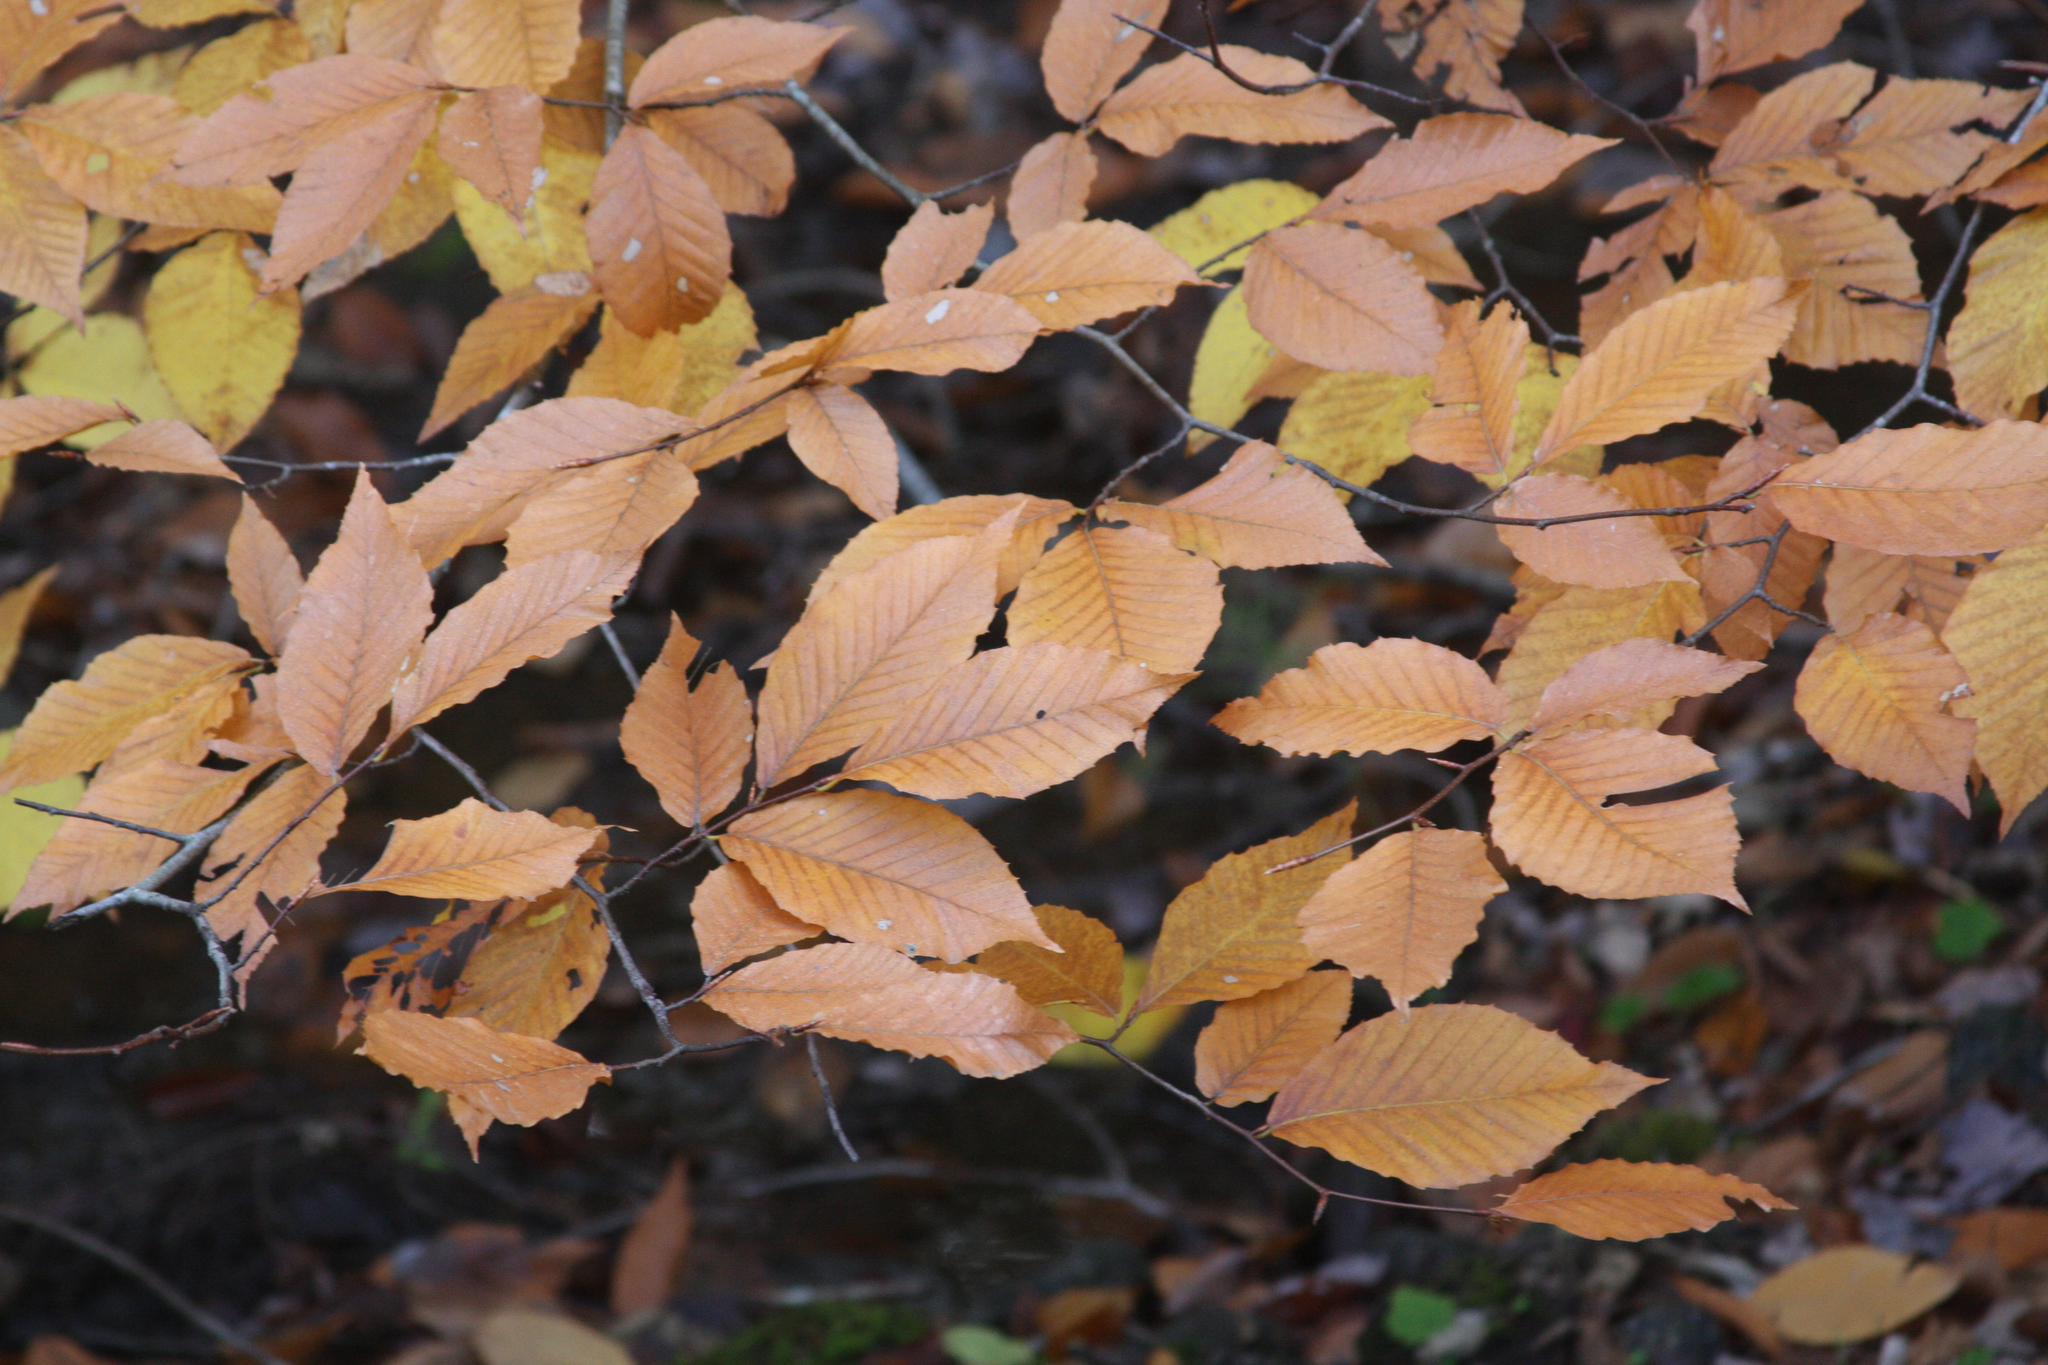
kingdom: Plantae
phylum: Tracheophyta
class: Magnoliopsida
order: Fagales
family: Fagaceae
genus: Fagus
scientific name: Fagus grandifolia
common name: American beech
